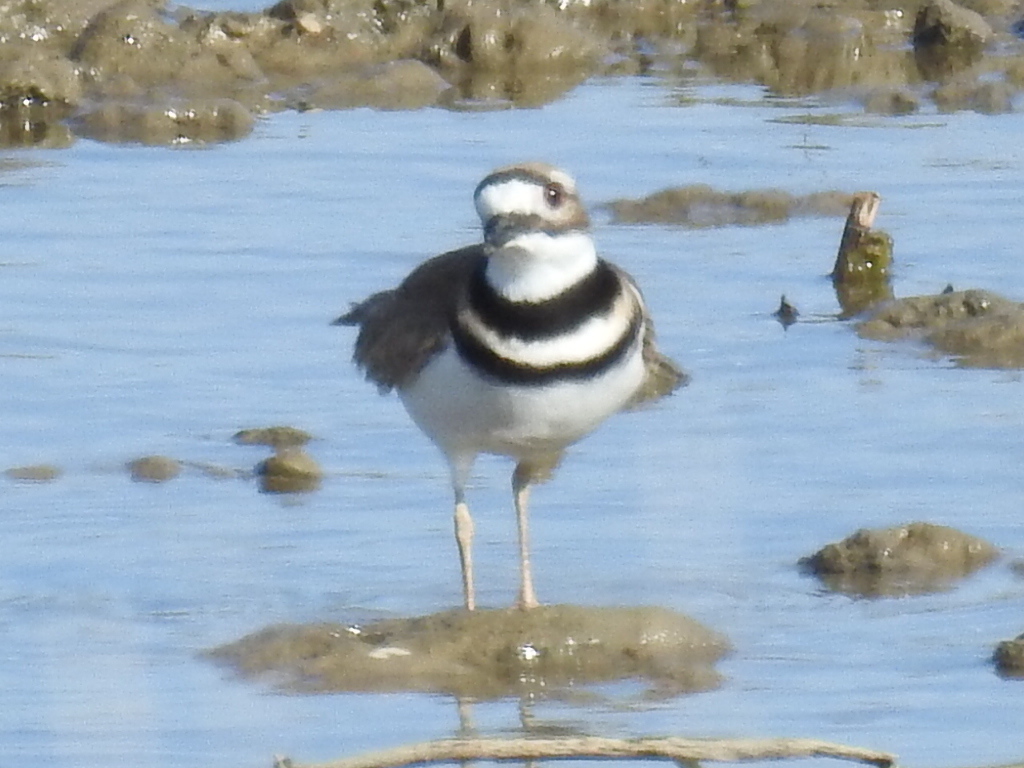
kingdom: Animalia
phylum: Chordata
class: Aves
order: Charadriiformes
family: Charadriidae
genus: Charadrius
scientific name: Charadrius vociferus
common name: Killdeer
